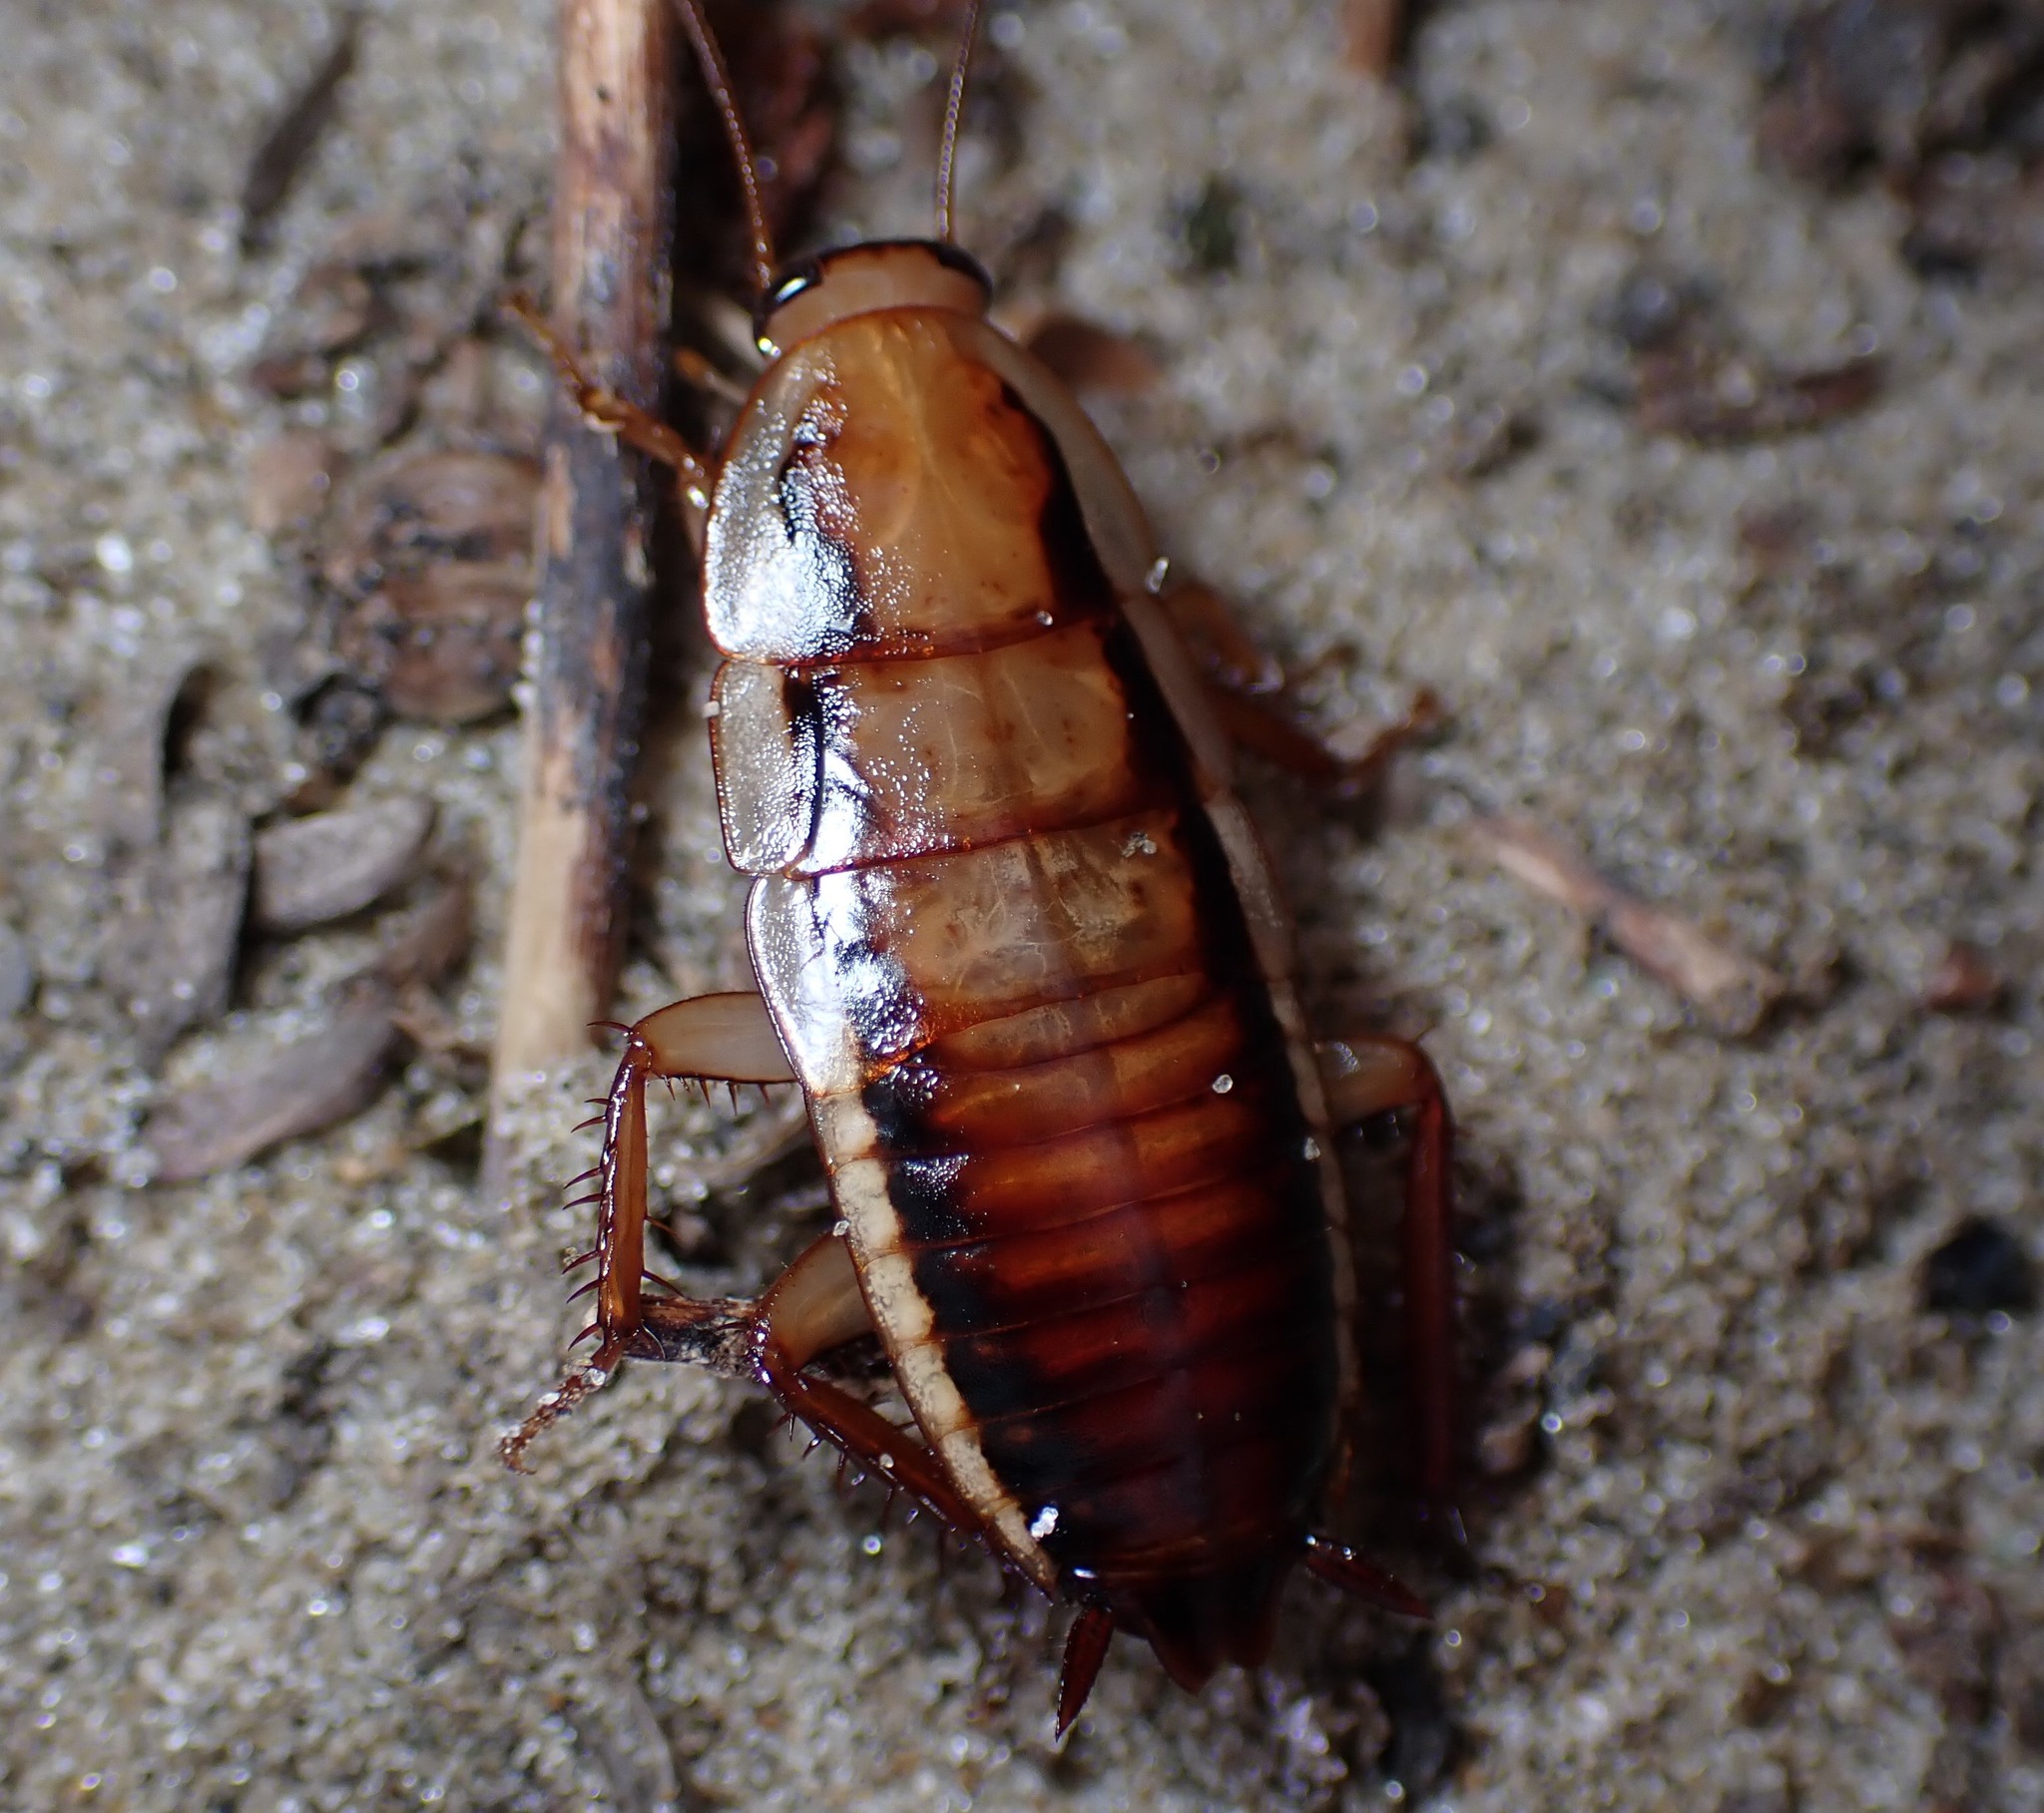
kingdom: Animalia
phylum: Arthropoda
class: Insecta
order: Blattodea
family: Blattidae
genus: Drymaplaneta
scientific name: Drymaplaneta heydeniana
